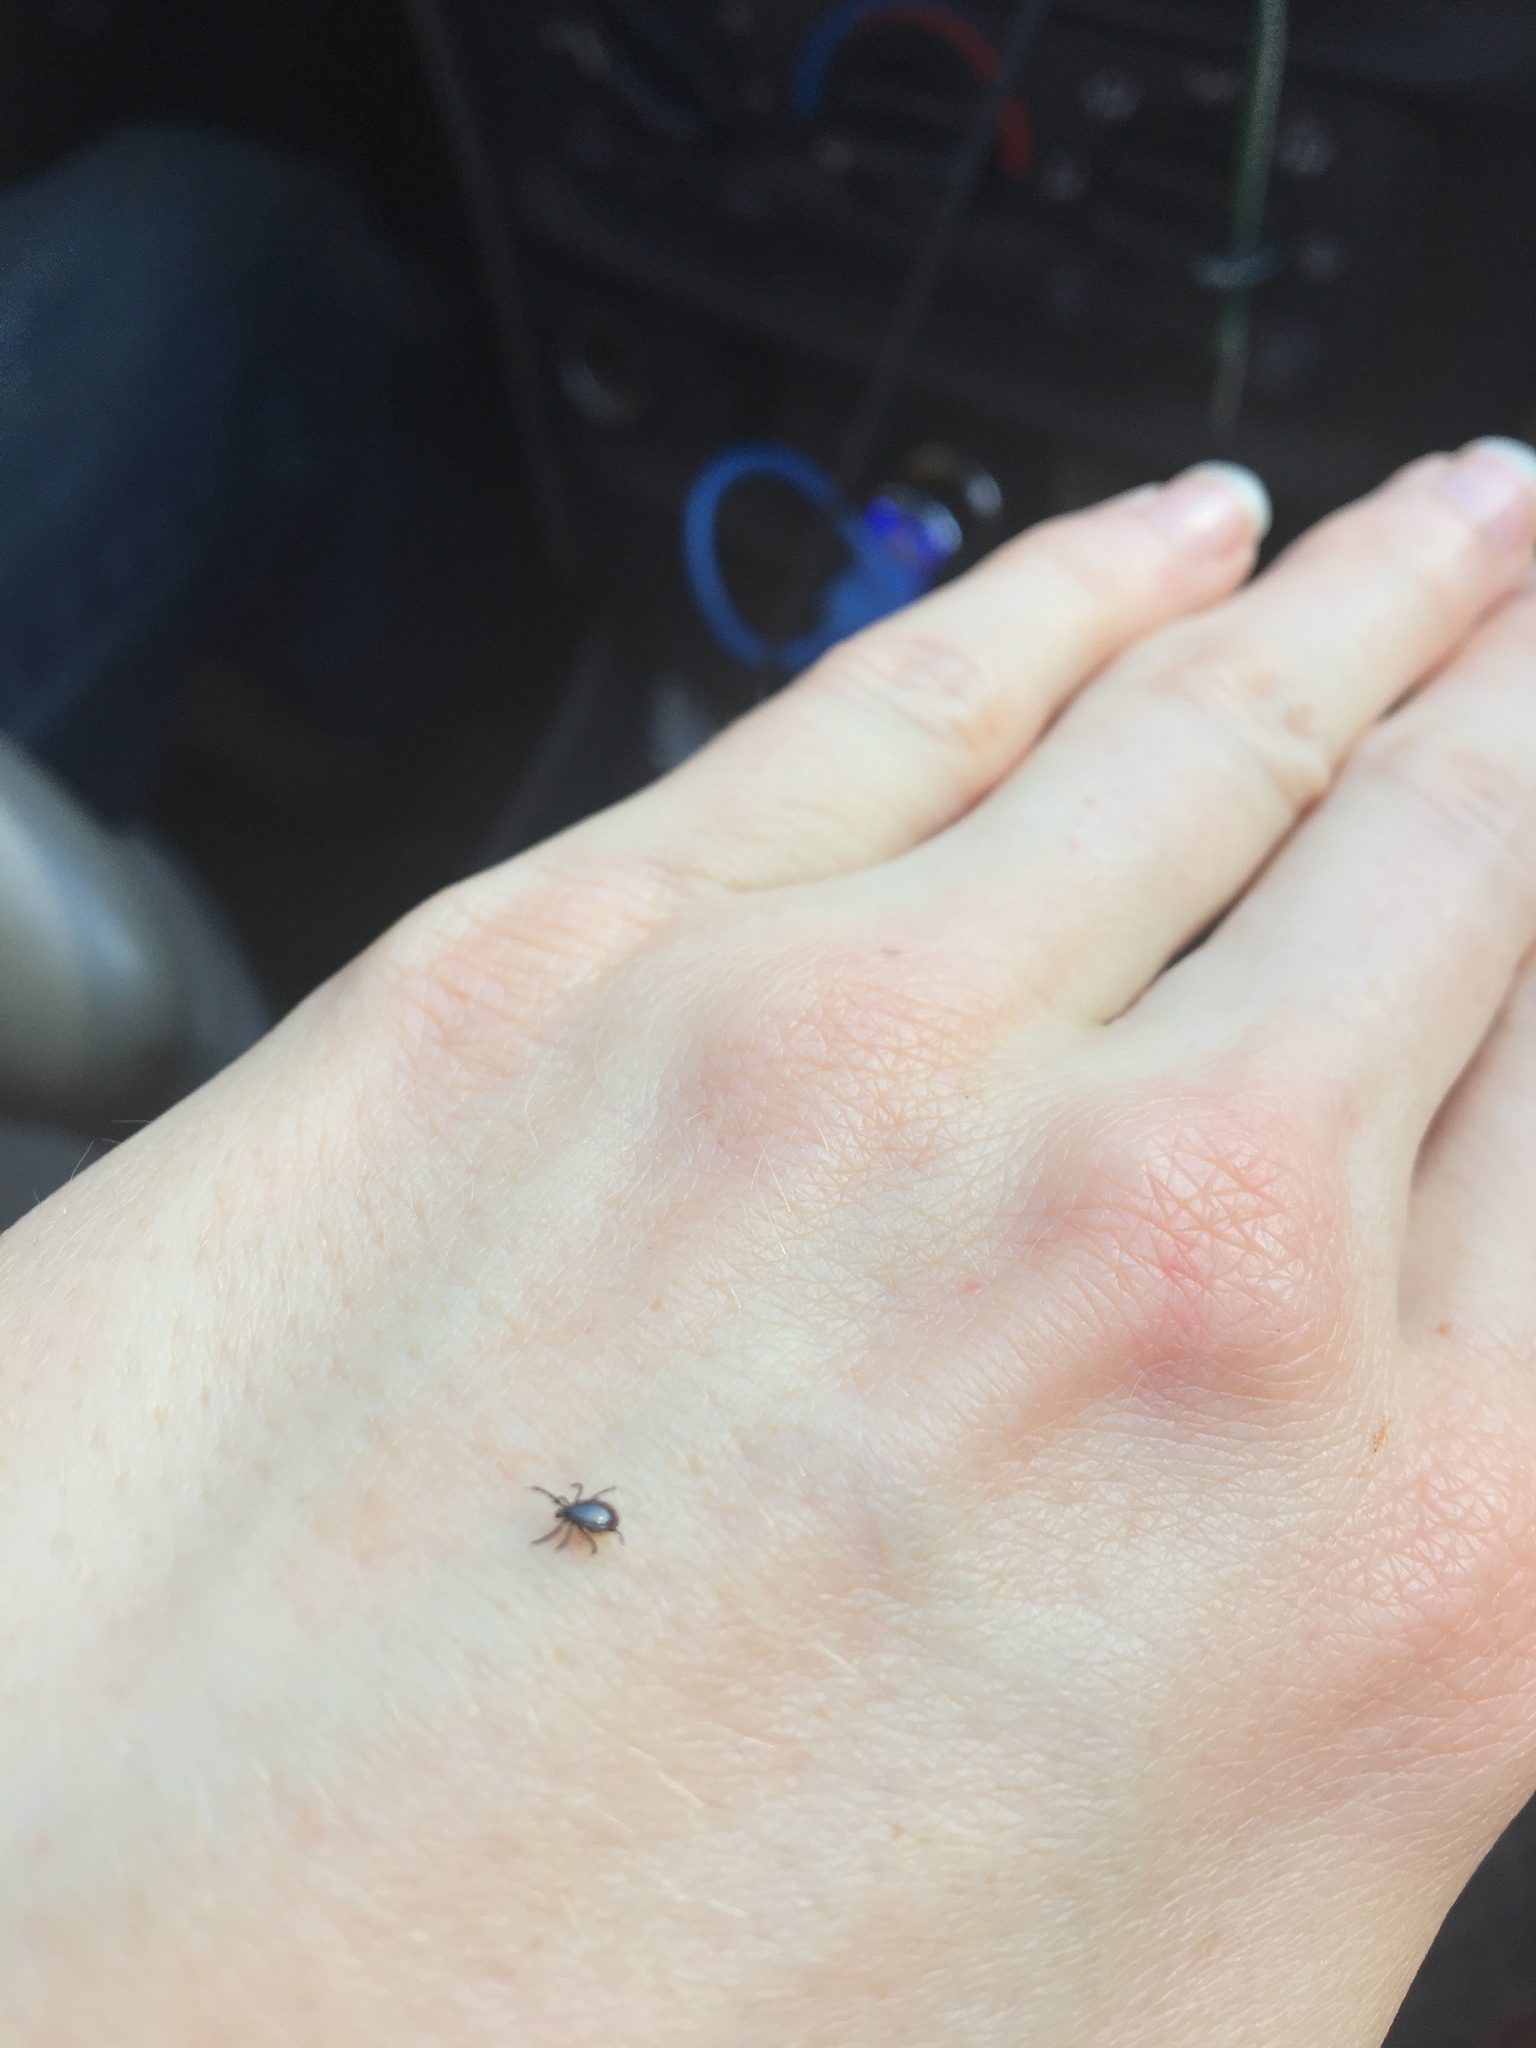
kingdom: Animalia
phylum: Arthropoda
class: Arachnida
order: Ixodida
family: Ixodidae
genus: Ixodes
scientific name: Ixodes pacificus
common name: California black-legged tick
